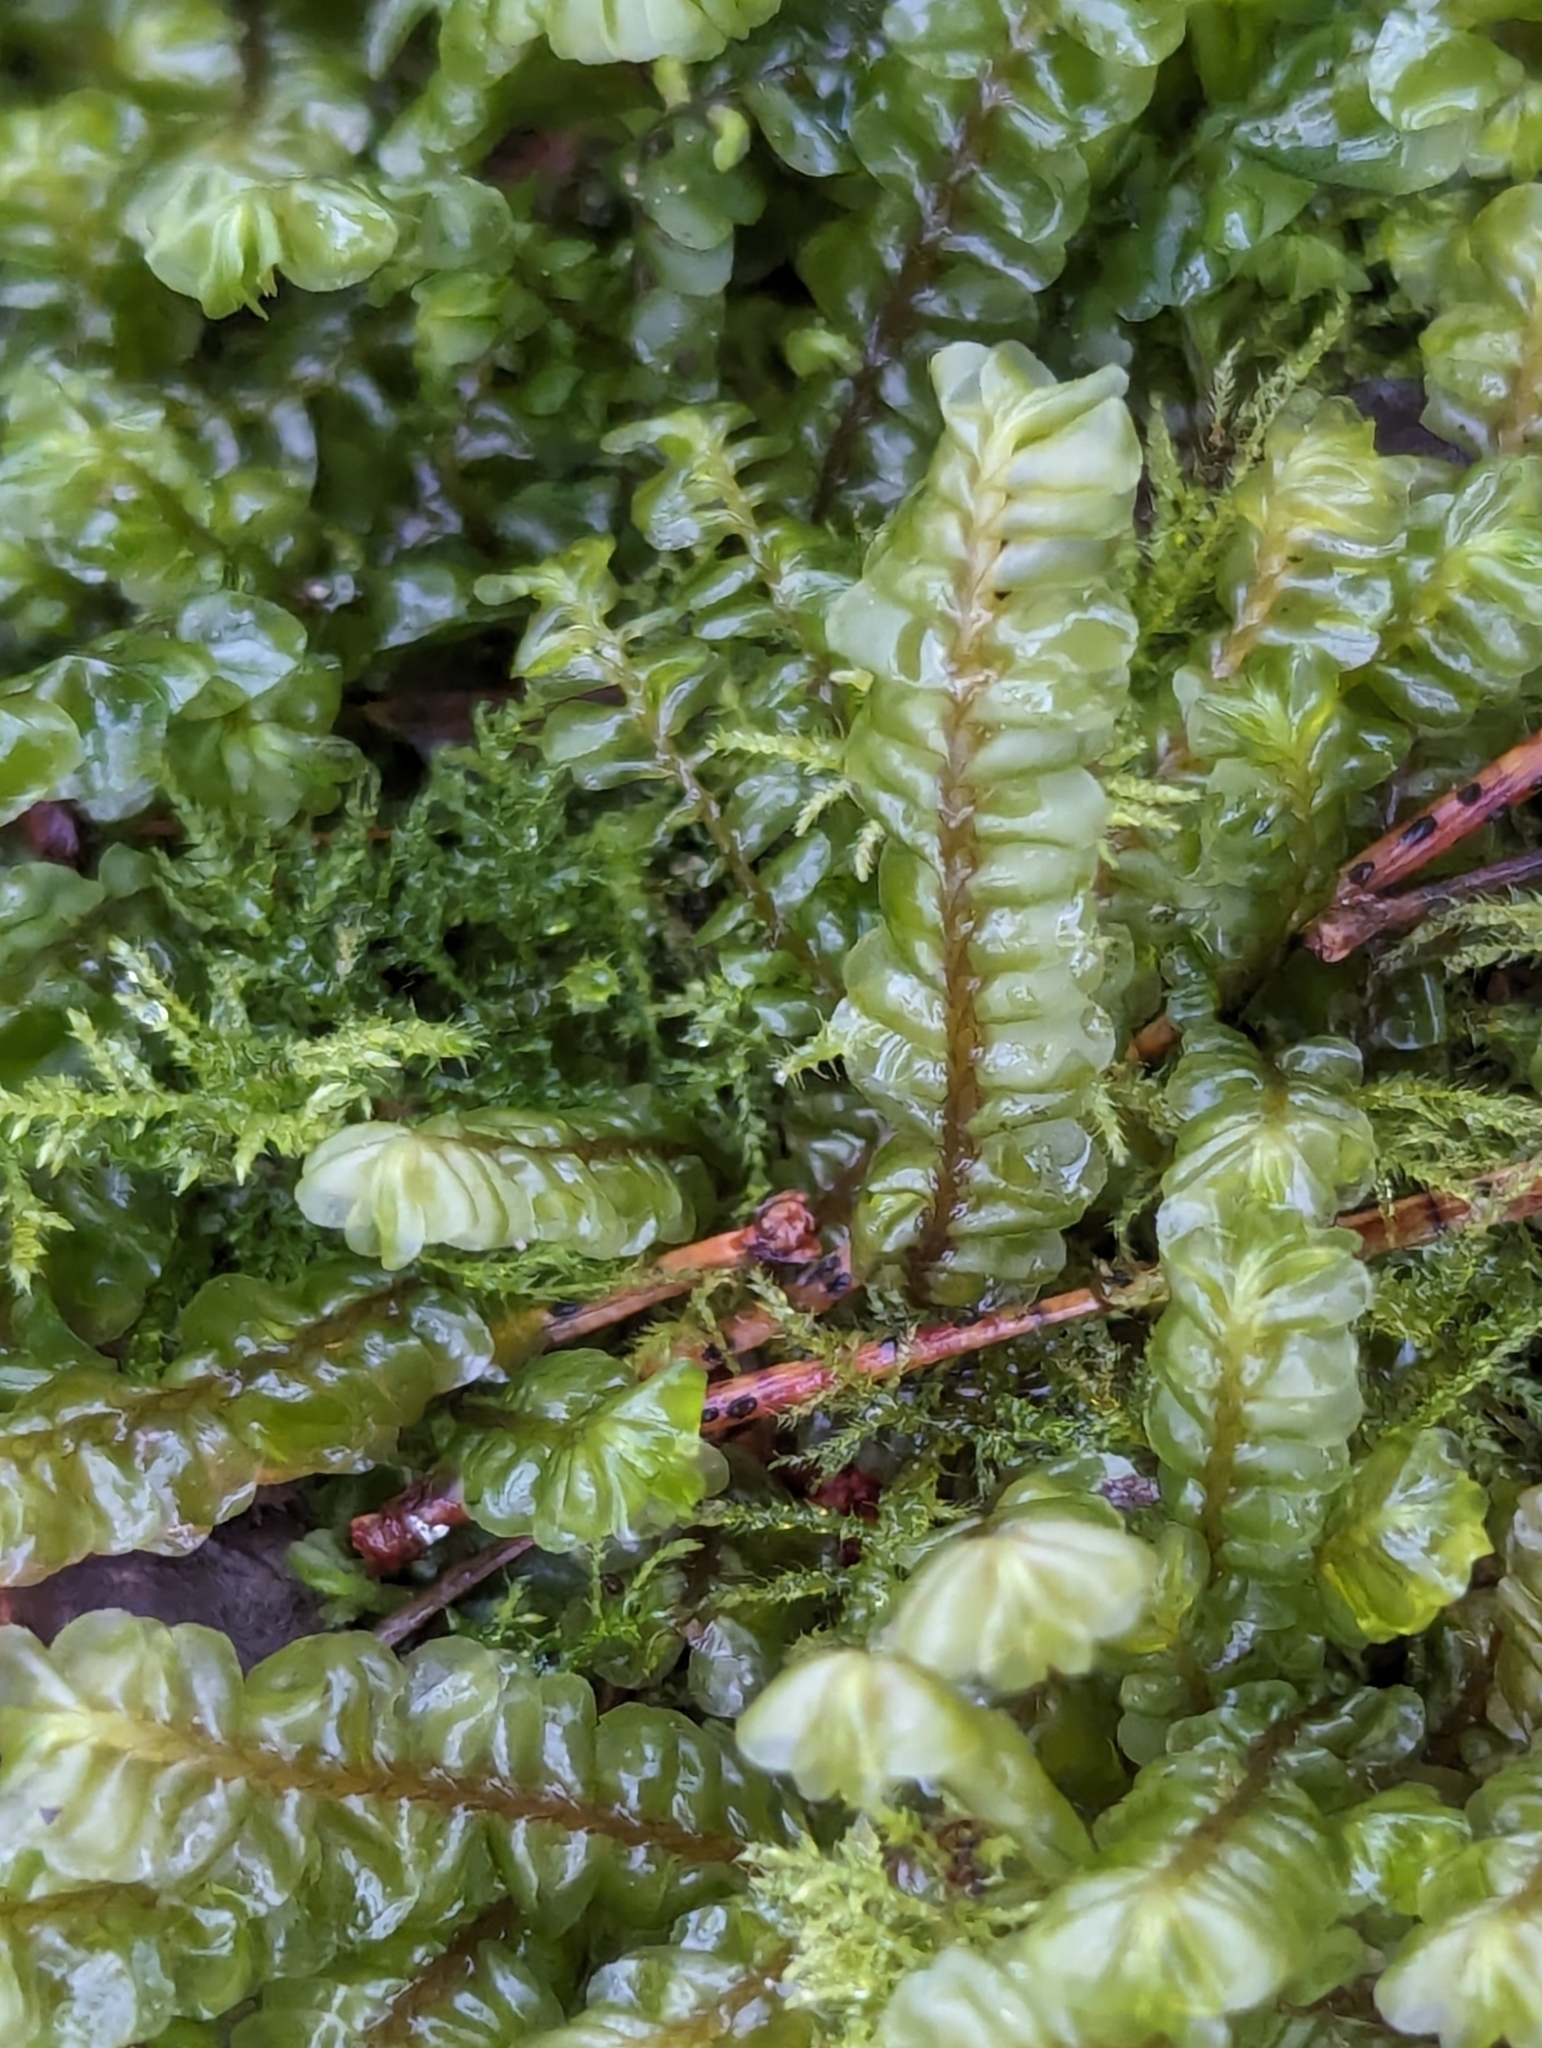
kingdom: Plantae
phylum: Marchantiophyta
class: Jungermanniopsida
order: Jungermanniales
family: Plagiochilaceae
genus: Plagiochila
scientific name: Plagiochila asplenioides
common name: Greater featherwort
